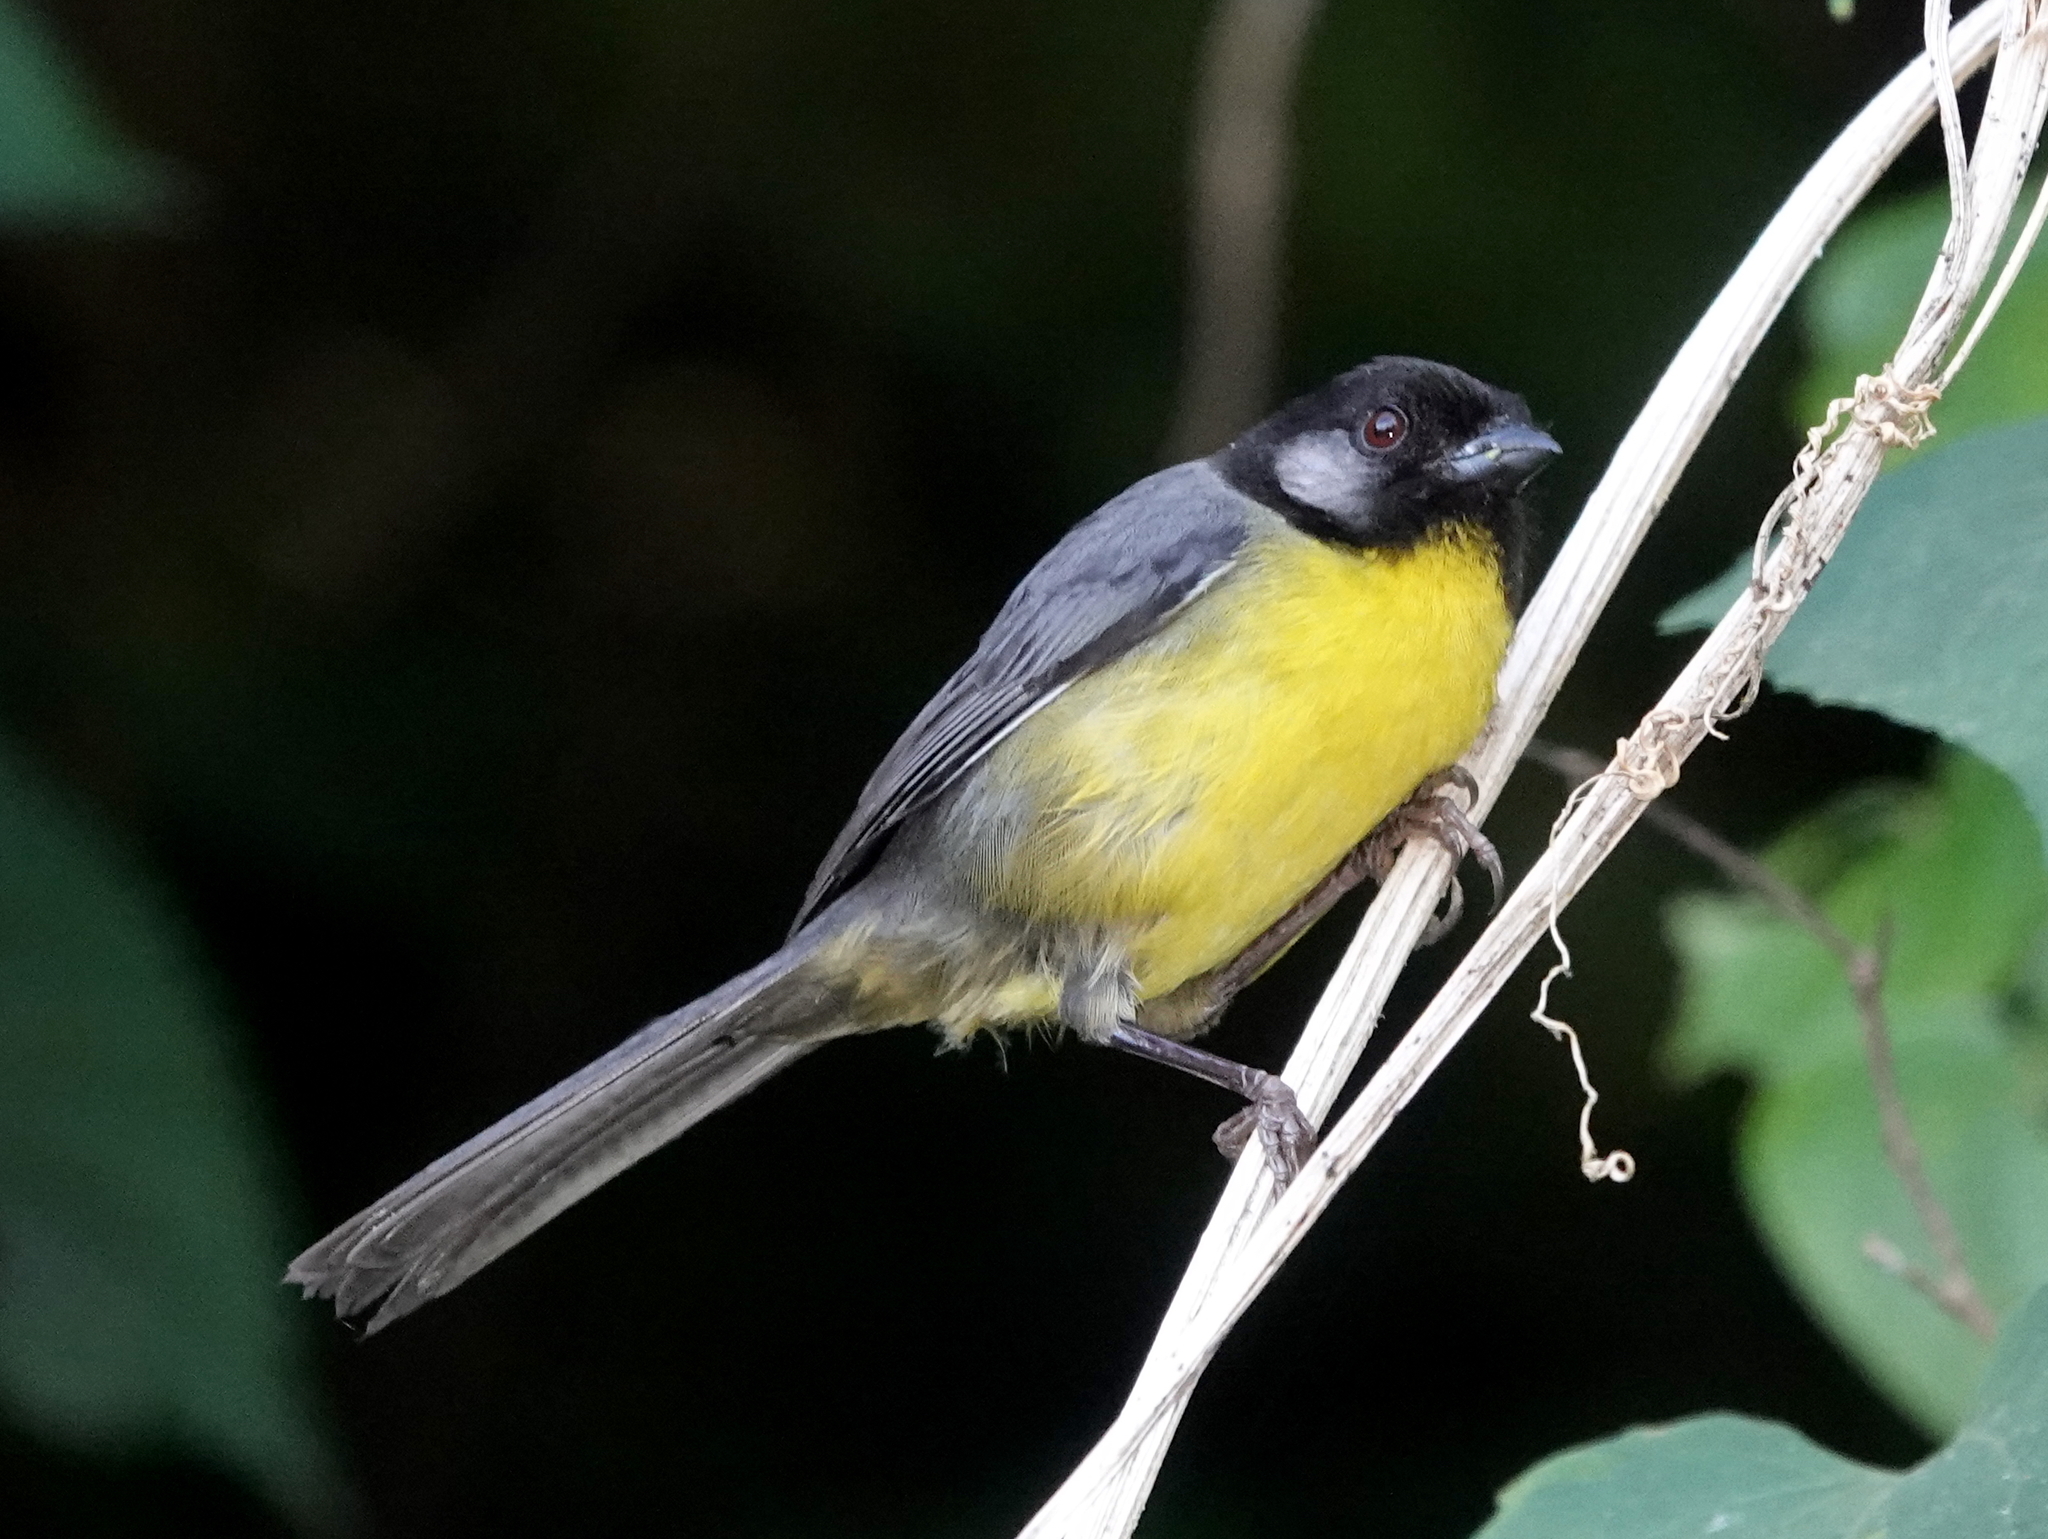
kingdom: Animalia
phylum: Chordata
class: Aves
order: Passeriformes
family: Passerellidae
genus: Atlapetes
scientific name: Atlapetes melanocephalus
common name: Santa marta brush-finch
